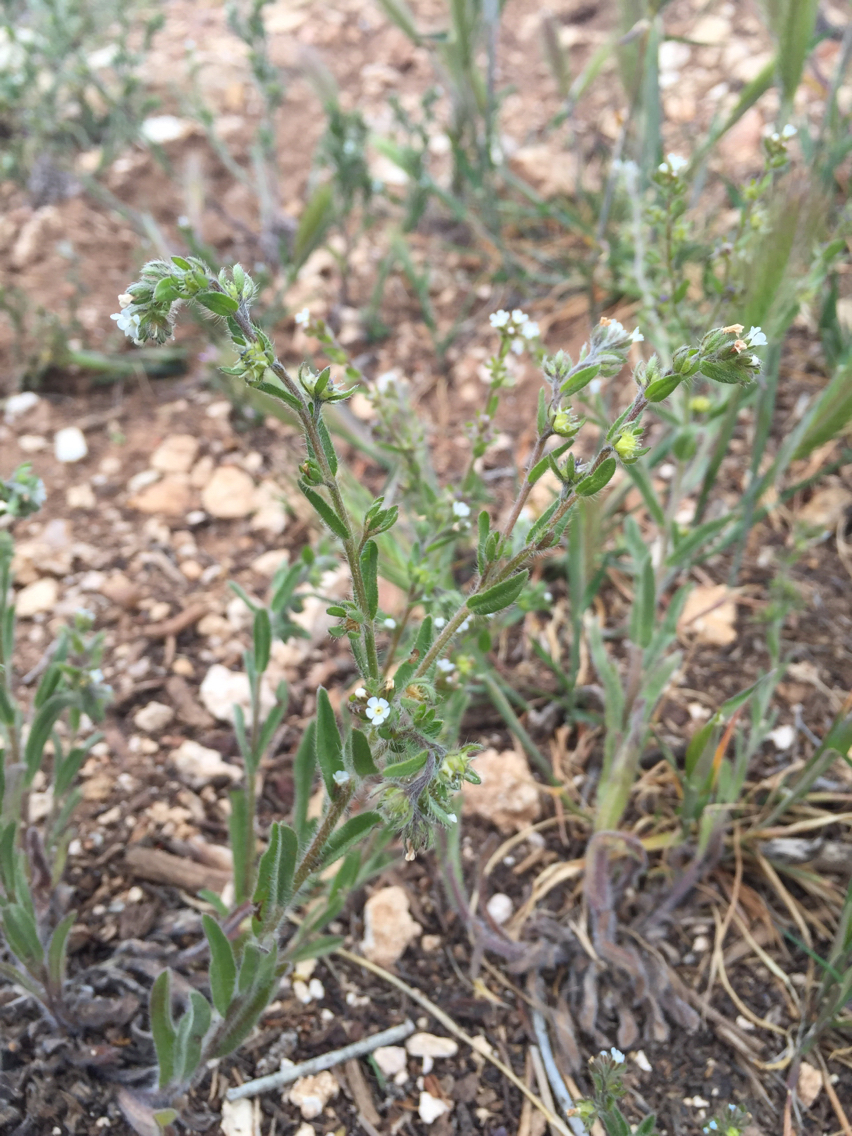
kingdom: Plantae
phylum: Tracheophyta
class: Magnoliopsida
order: Boraginales
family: Boraginaceae
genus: Lappula
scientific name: Lappula occidentalis
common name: Western stickseed
